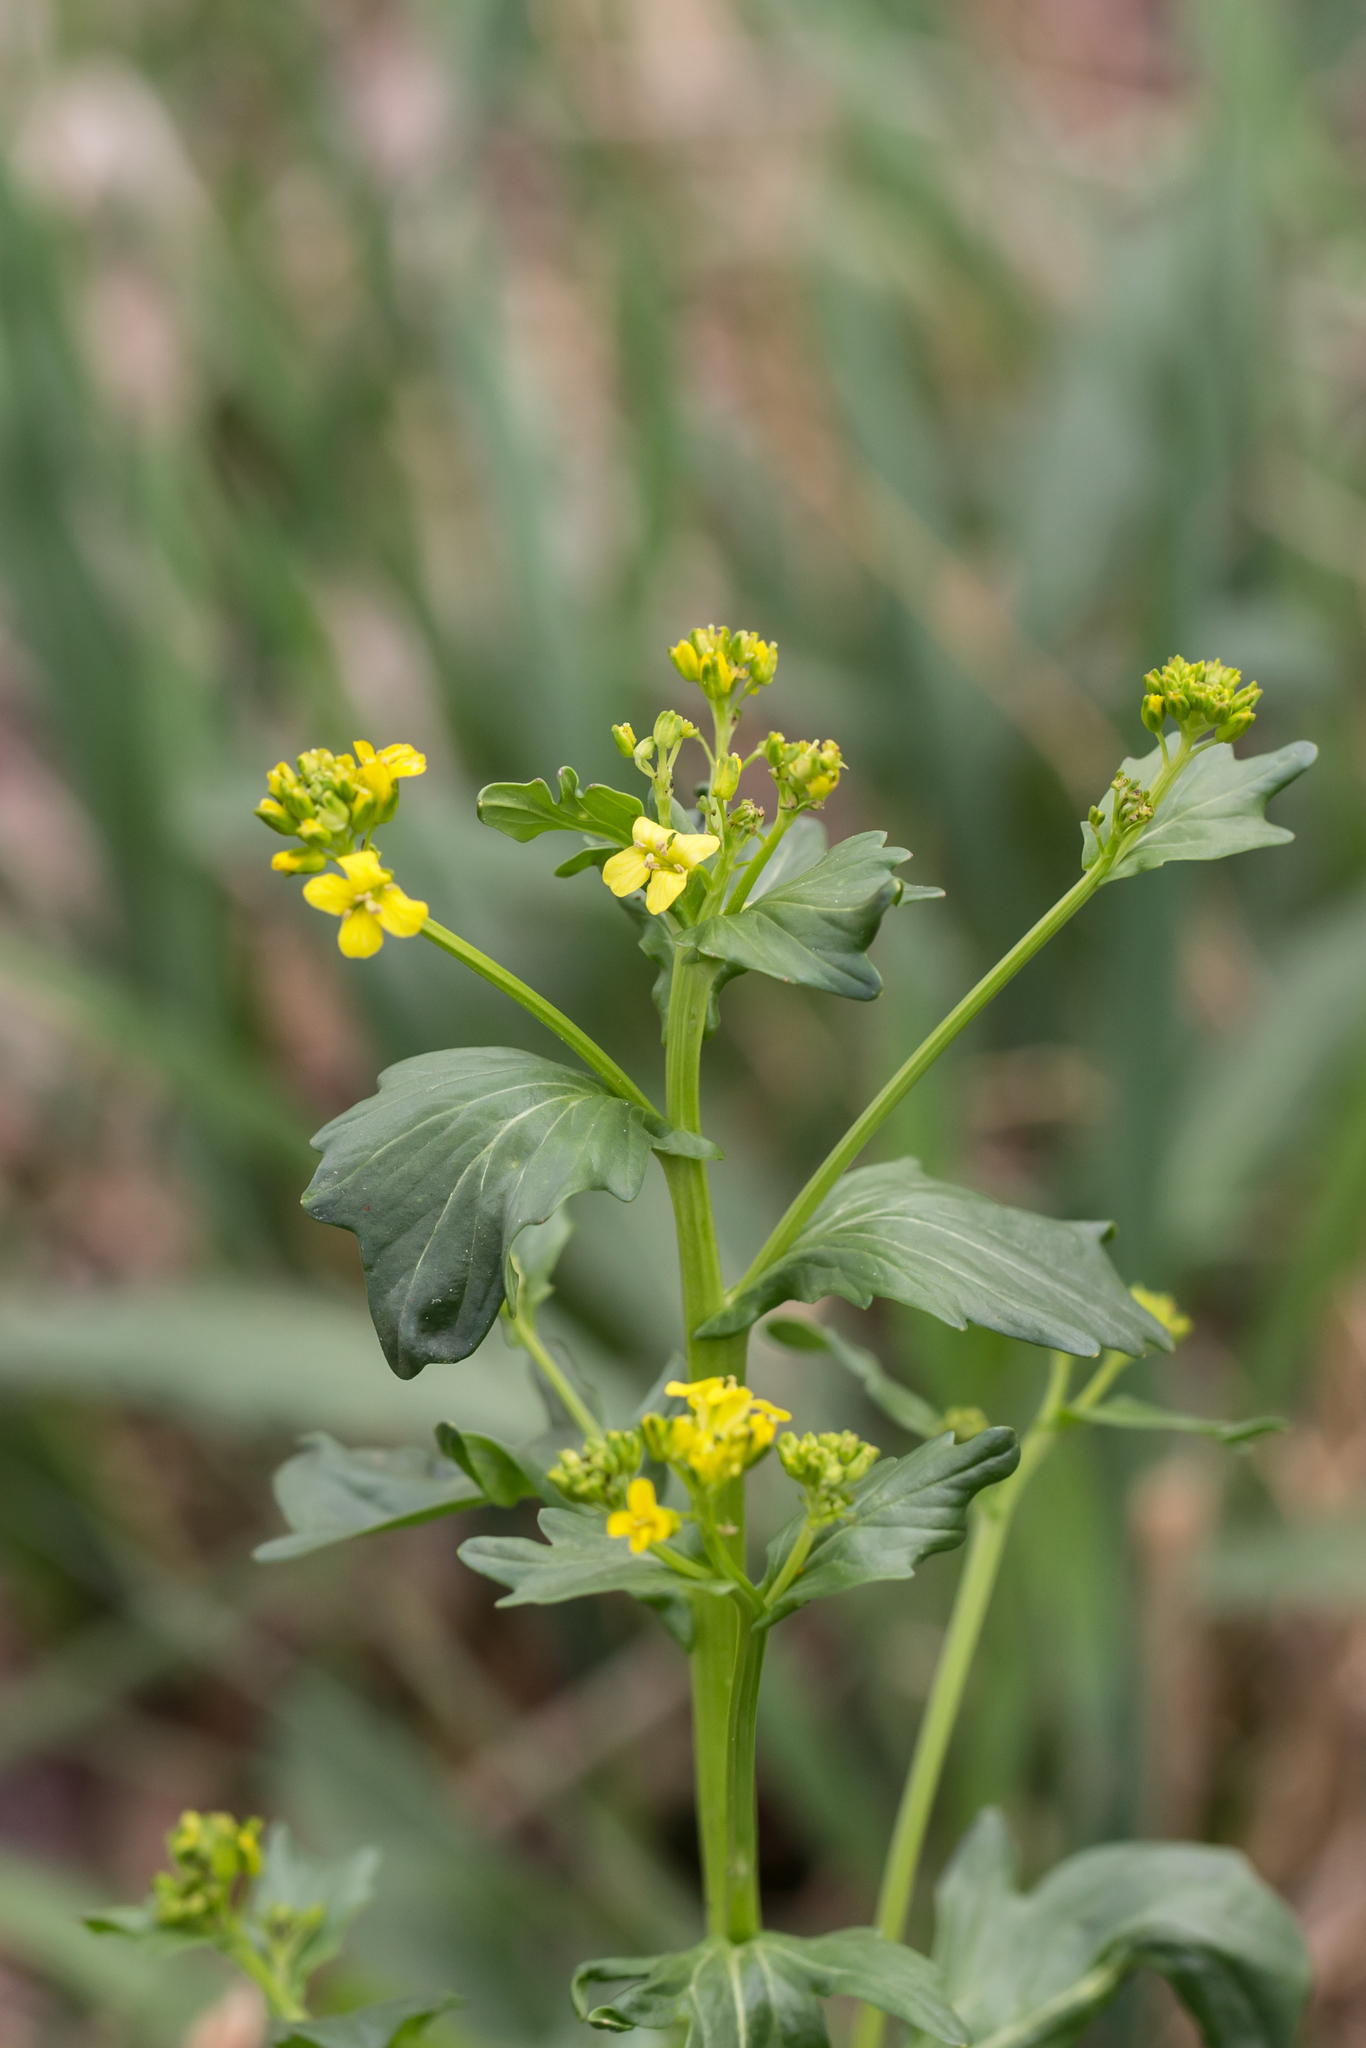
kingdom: Plantae
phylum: Tracheophyta
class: Magnoliopsida
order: Brassicales
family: Brassicaceae
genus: Barbarea
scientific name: Barbarea vulgaris
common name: Cressy-greens
